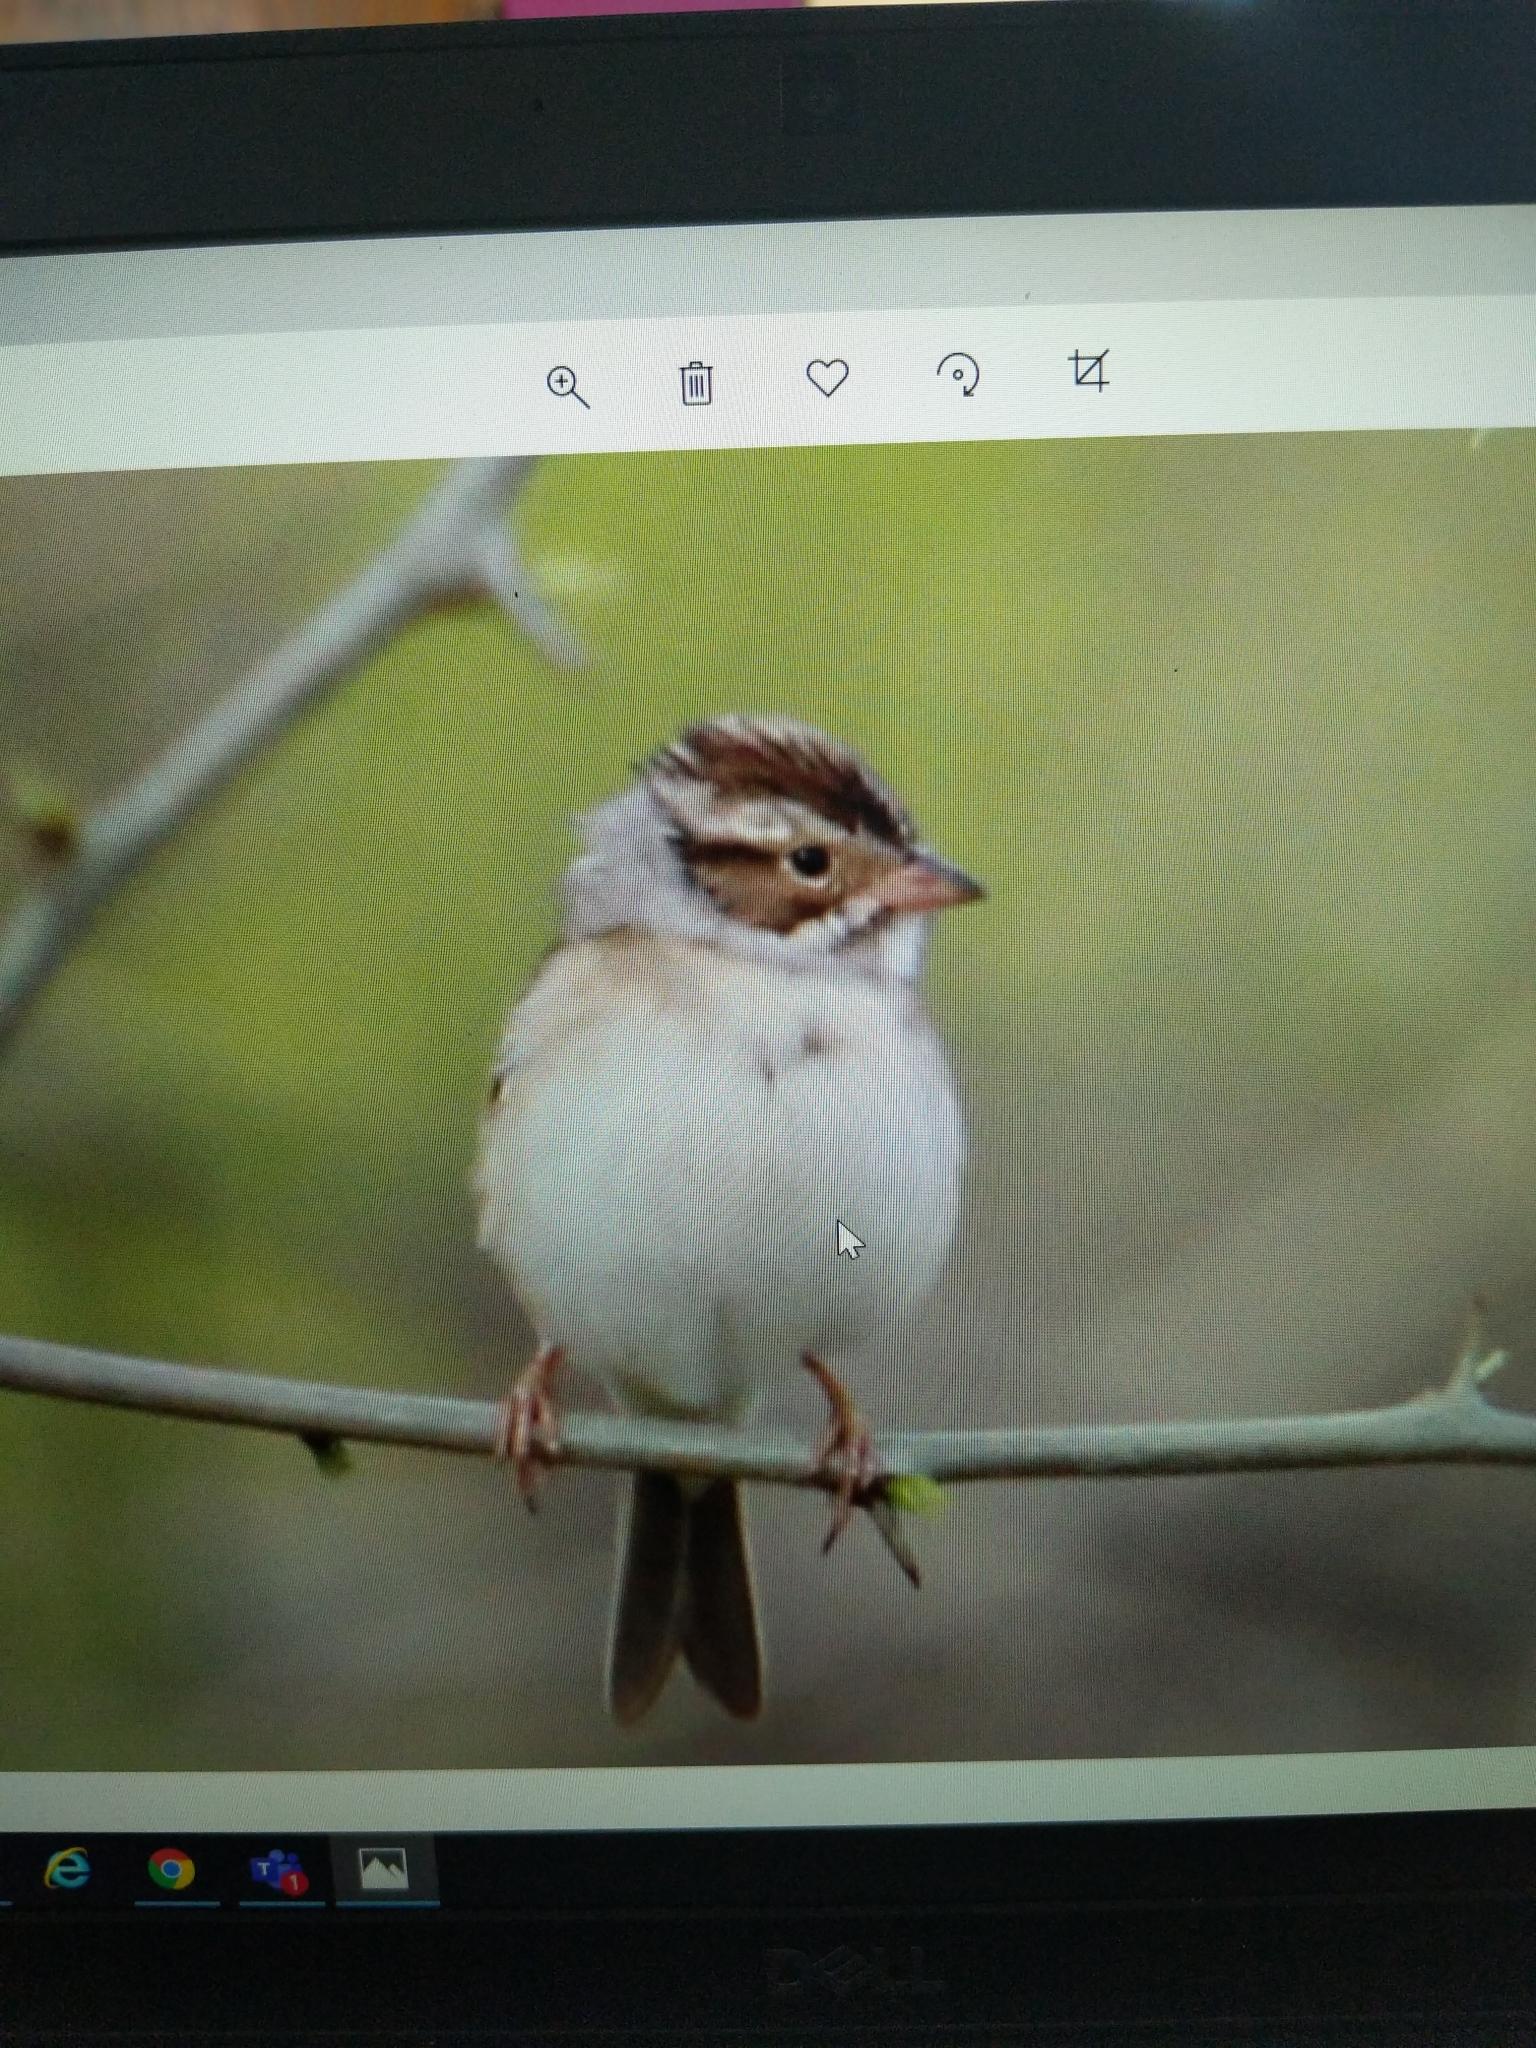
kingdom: Animalia
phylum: Chordata
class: Aves
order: Passeriformes
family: Passerellidae
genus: Spizella
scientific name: Spizella pallida
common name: Clay-colored sparrow
